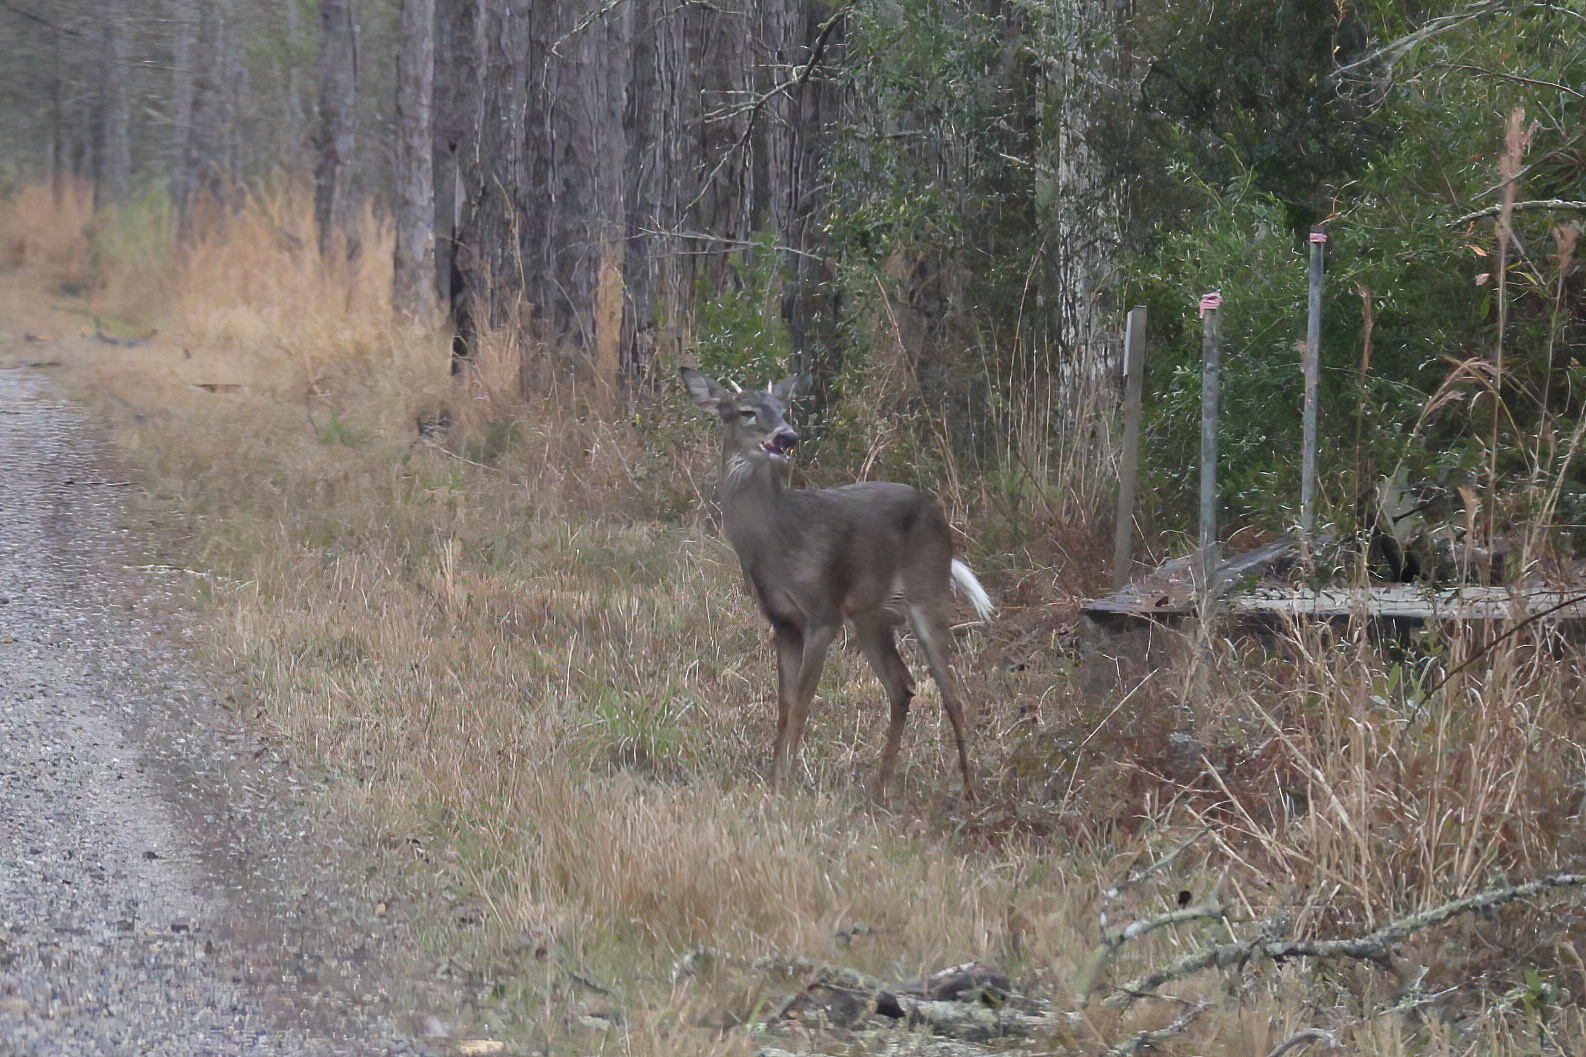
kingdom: Animalia
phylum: Chordata
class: Mammalia
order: Artiodactyla
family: Cervidae
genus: Odocoileus
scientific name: Odocoileus virginianus
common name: White-tailed deer
